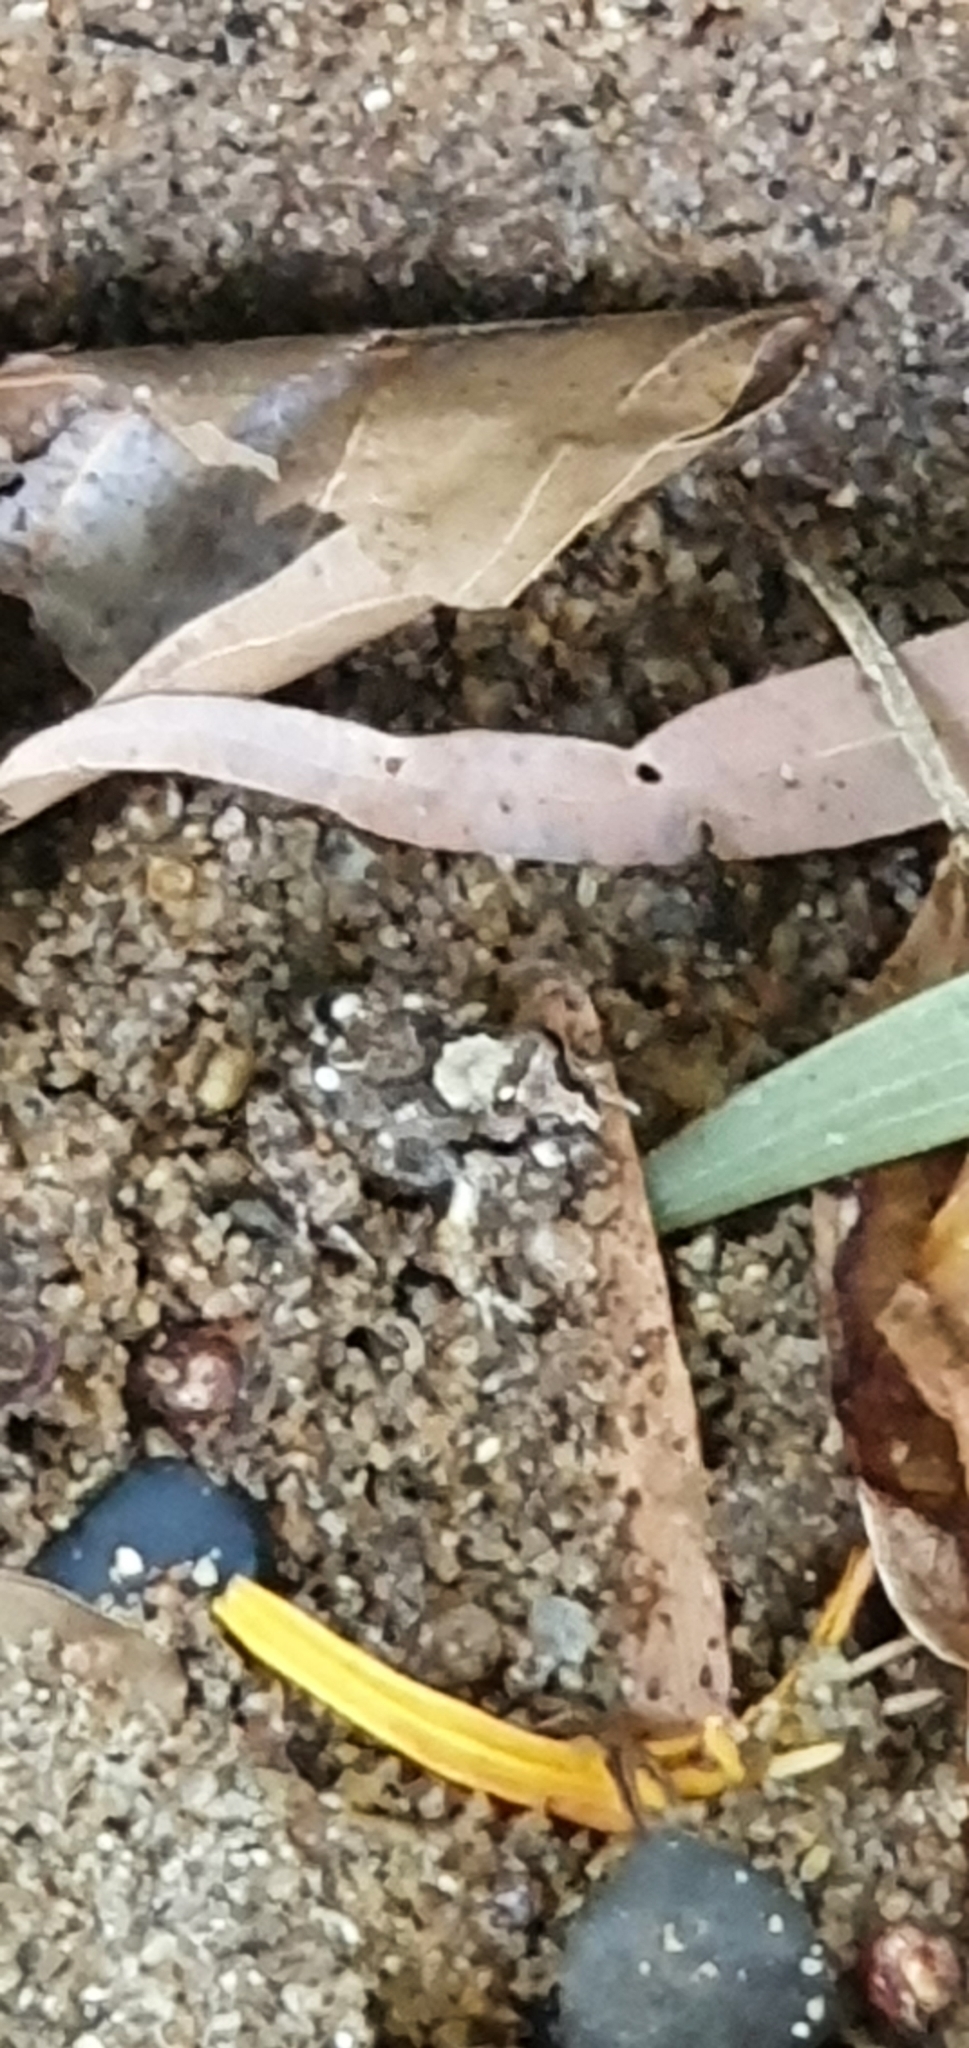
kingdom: Animalia
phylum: Chordata
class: Amphibia
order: Anura
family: Limnodynastidae
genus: Platyplectrum
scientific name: Platyplectrum ornatum
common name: Ornate burrowing frog
